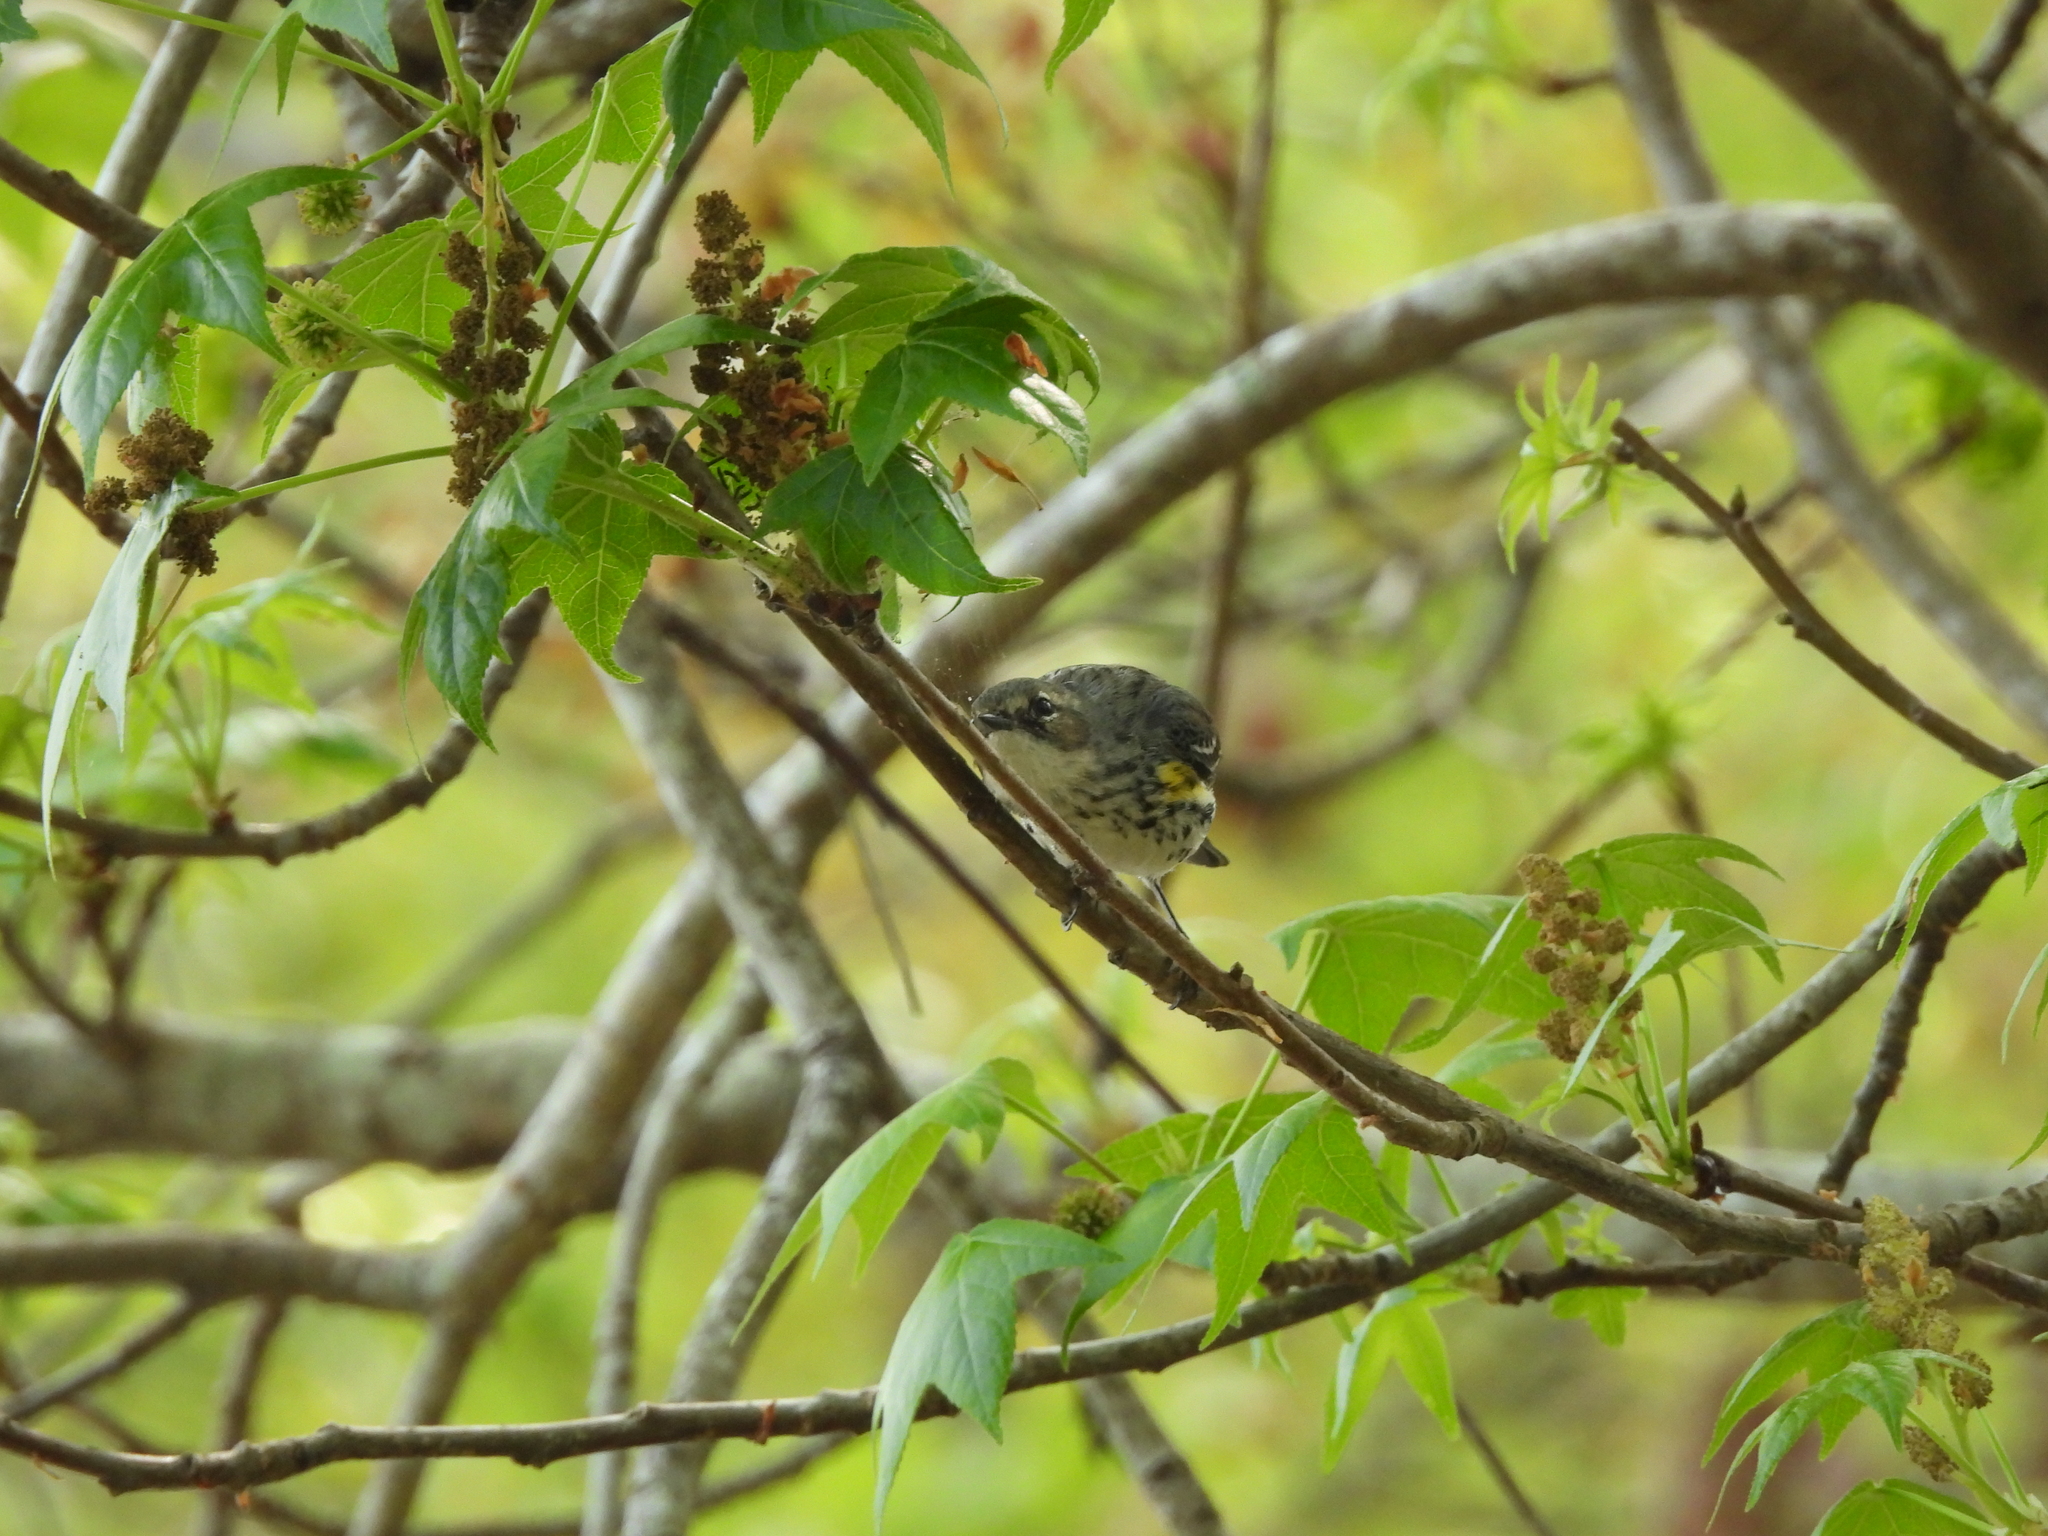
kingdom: Animalia
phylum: Chordata
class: Aves
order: Passeriformes
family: Parulidae
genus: Setophaga
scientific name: Setophaga coronata
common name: Myrtle warbler
